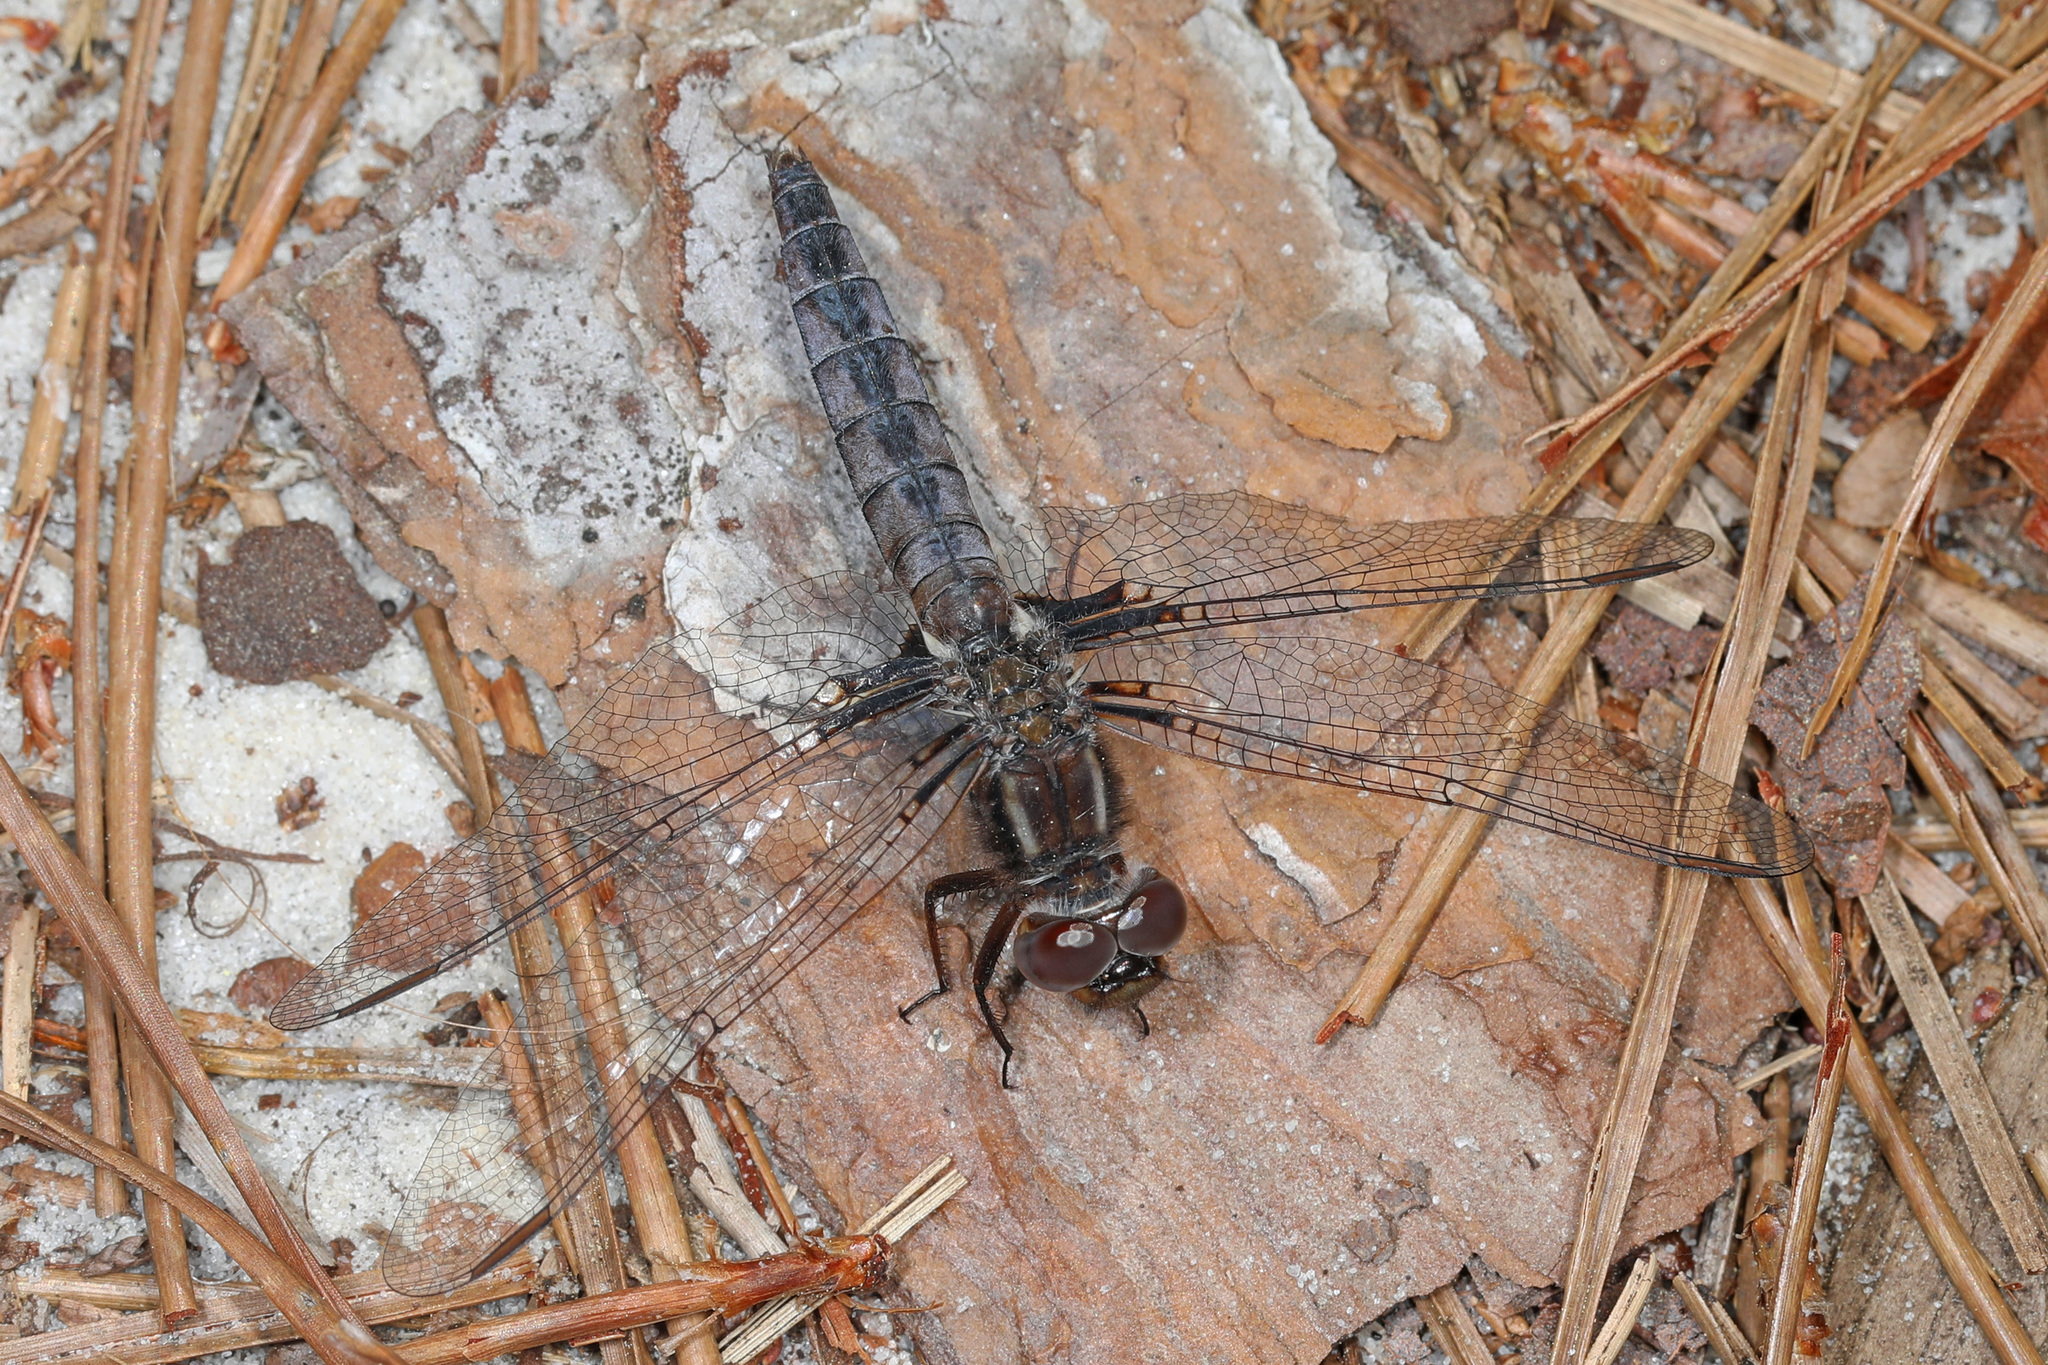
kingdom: Animalia
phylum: Arthropoda
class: Insecta
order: Odonata
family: Libellulidae
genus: Ladona
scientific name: Ladona deplanata
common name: Blue corporal
